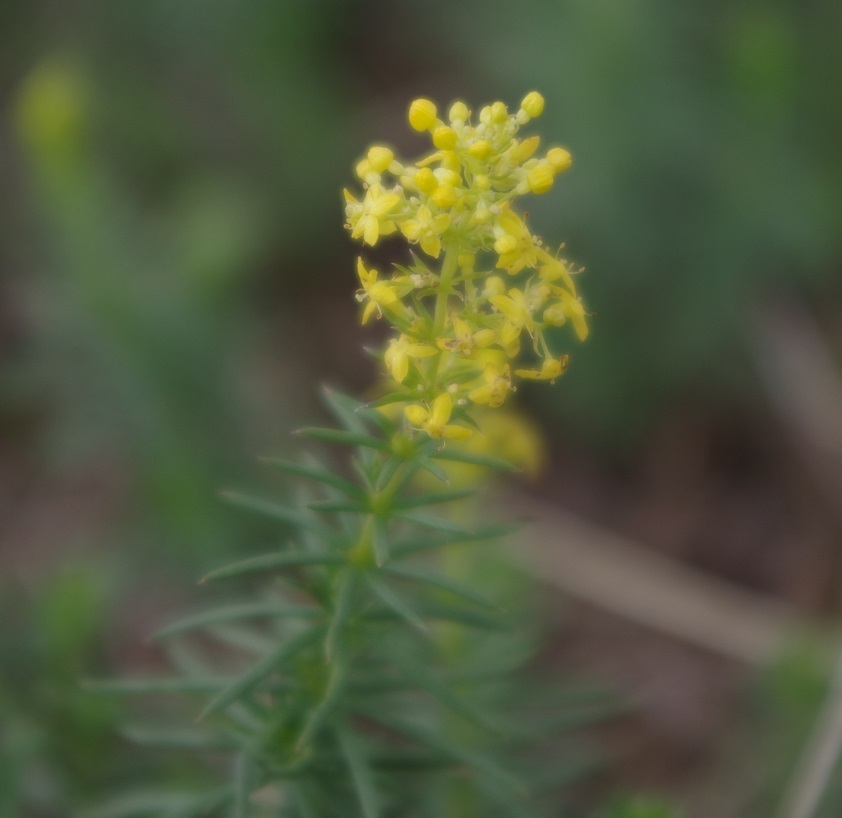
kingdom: Plantae
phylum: Tracheophyta
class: Magnoliopsida
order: Gentianales
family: Rubiaceae
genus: Galium
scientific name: Galium verum
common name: Lady's bedstraw
